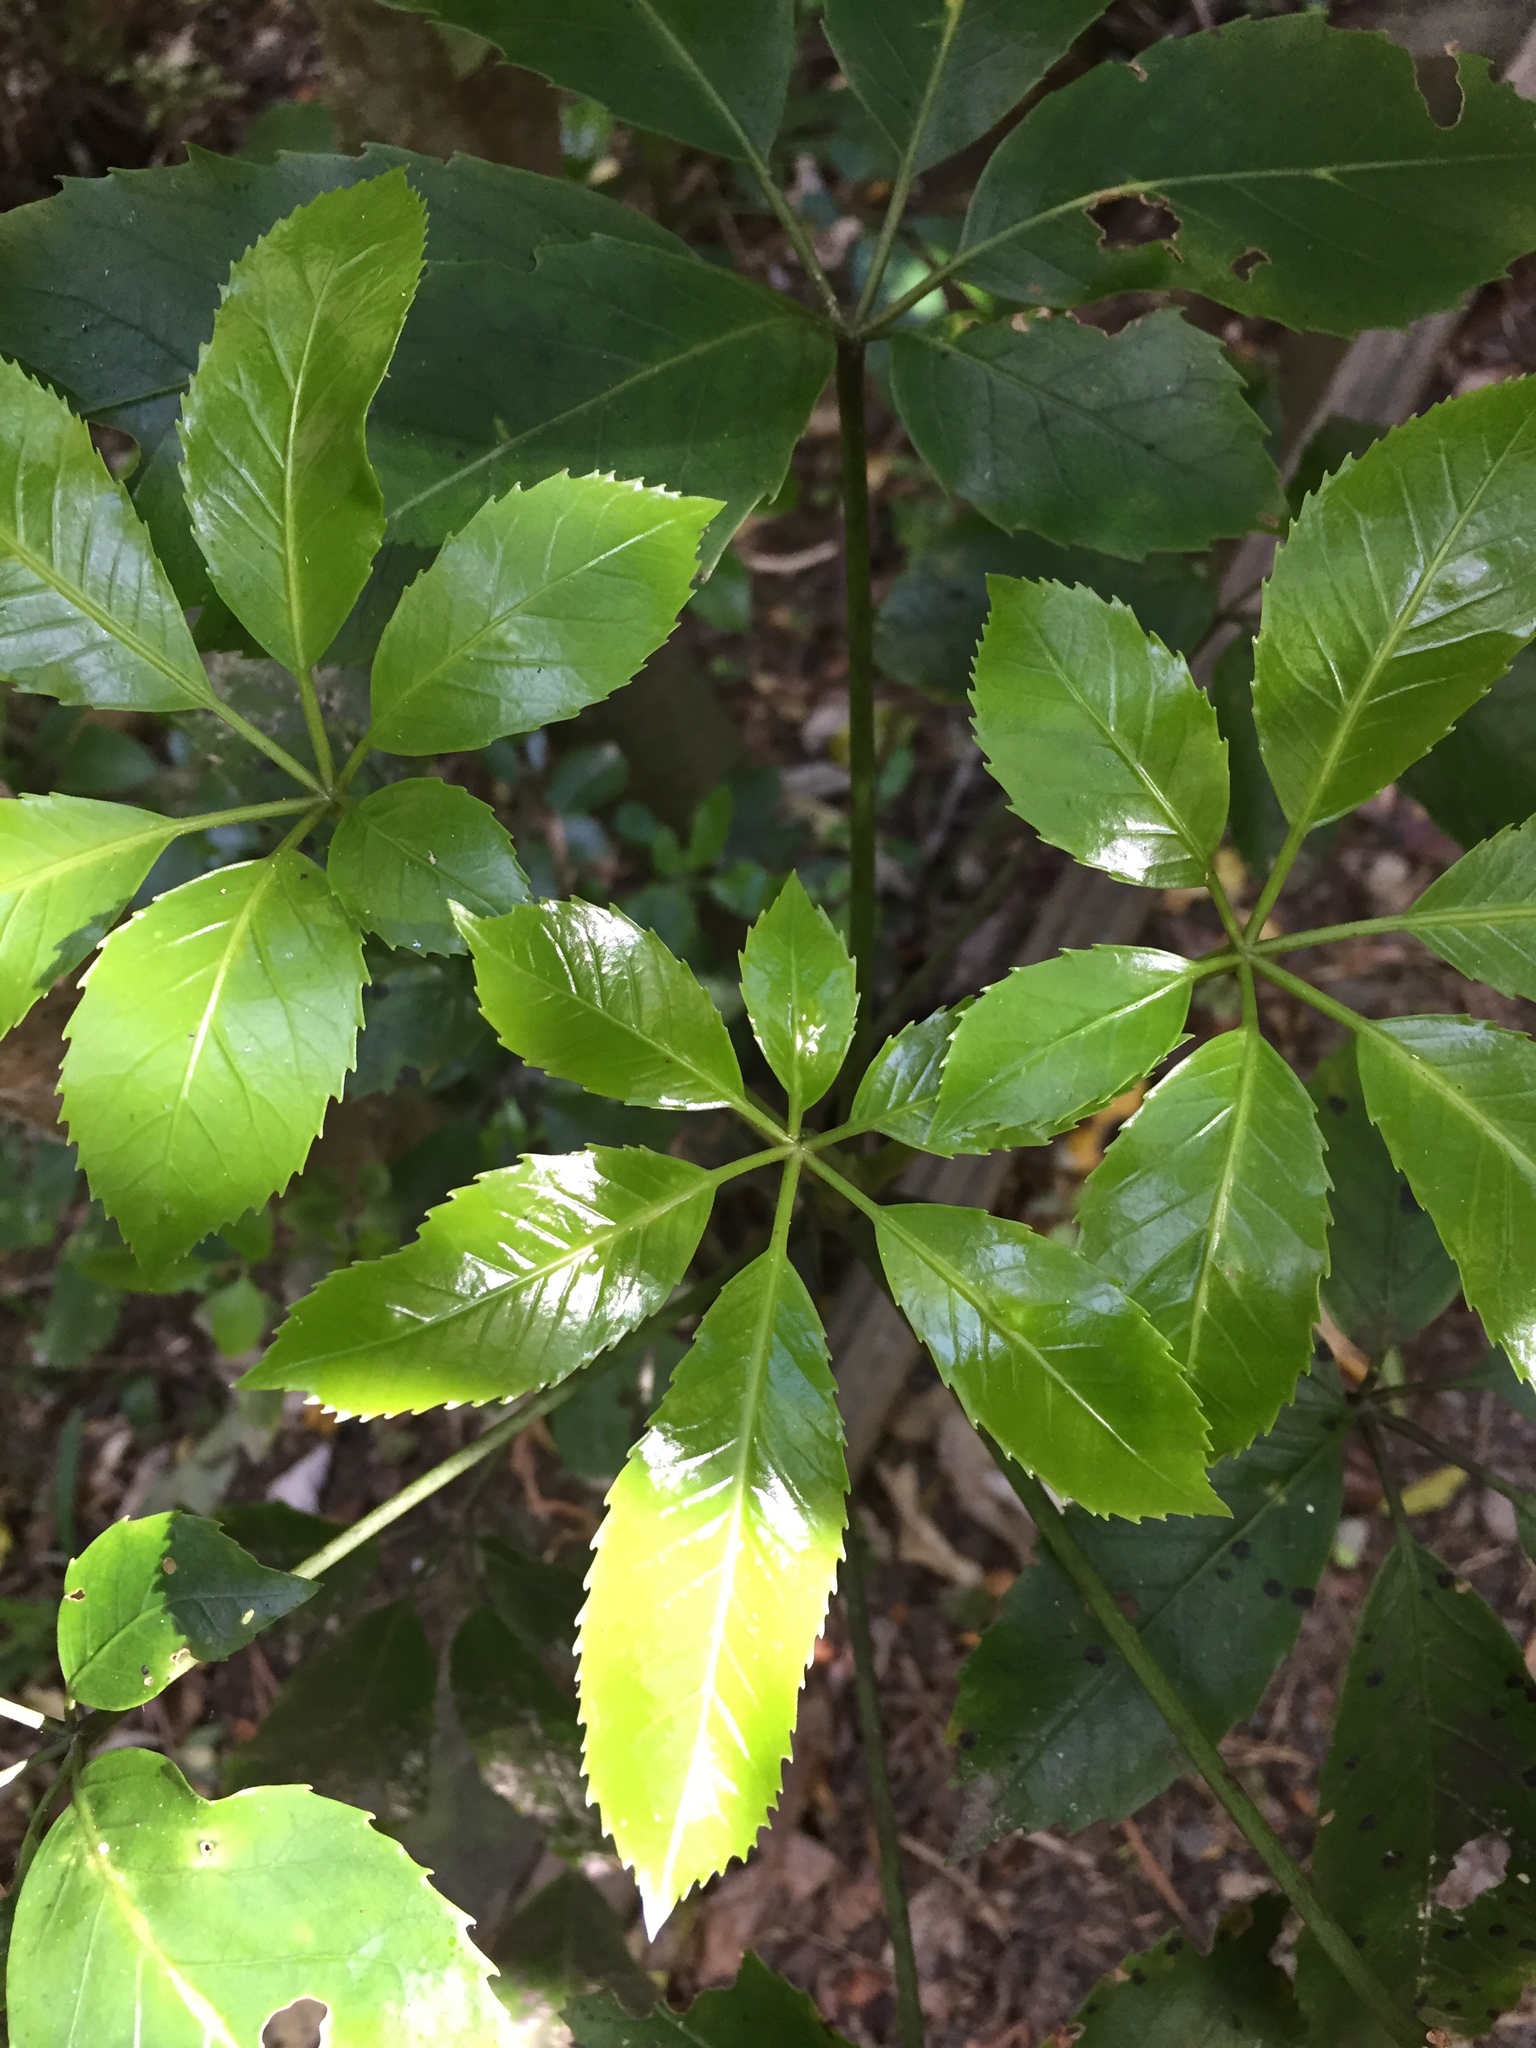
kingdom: Plantae
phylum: Tracheophyta
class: Magnoliopsida
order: Apiales
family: Araliaceae
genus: Neopanax
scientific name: Neopanax arboreus
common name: Five-fingers
